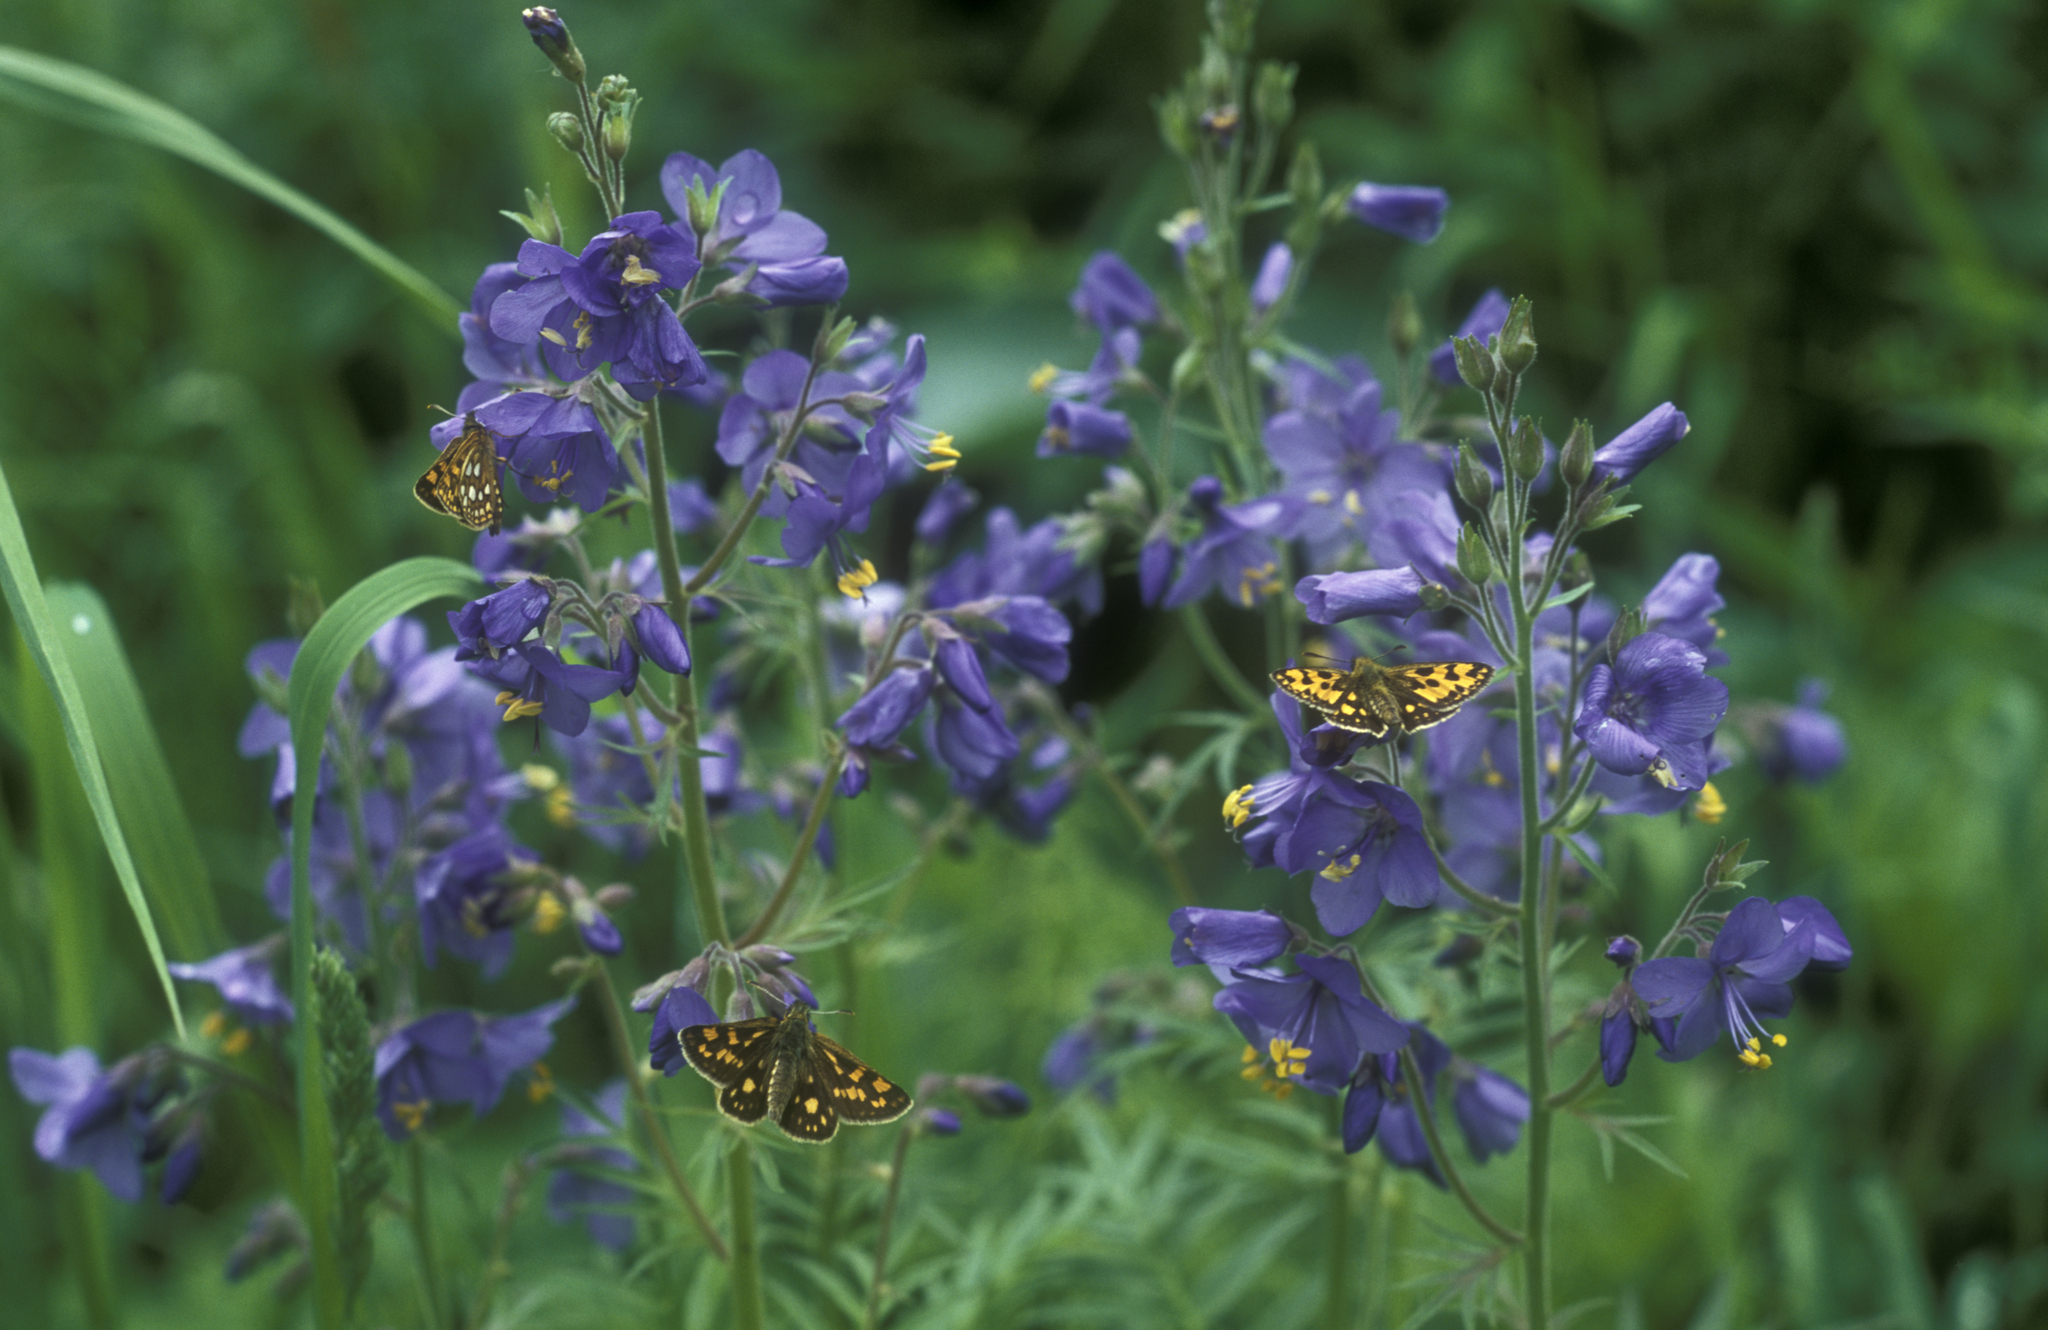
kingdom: Plantae
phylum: Tracheophyta
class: Magnoliopsida
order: Ericales
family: Polemoniaceae
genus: Polemonium
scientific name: Polemonium caeruleum
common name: Jacob's-ladder
